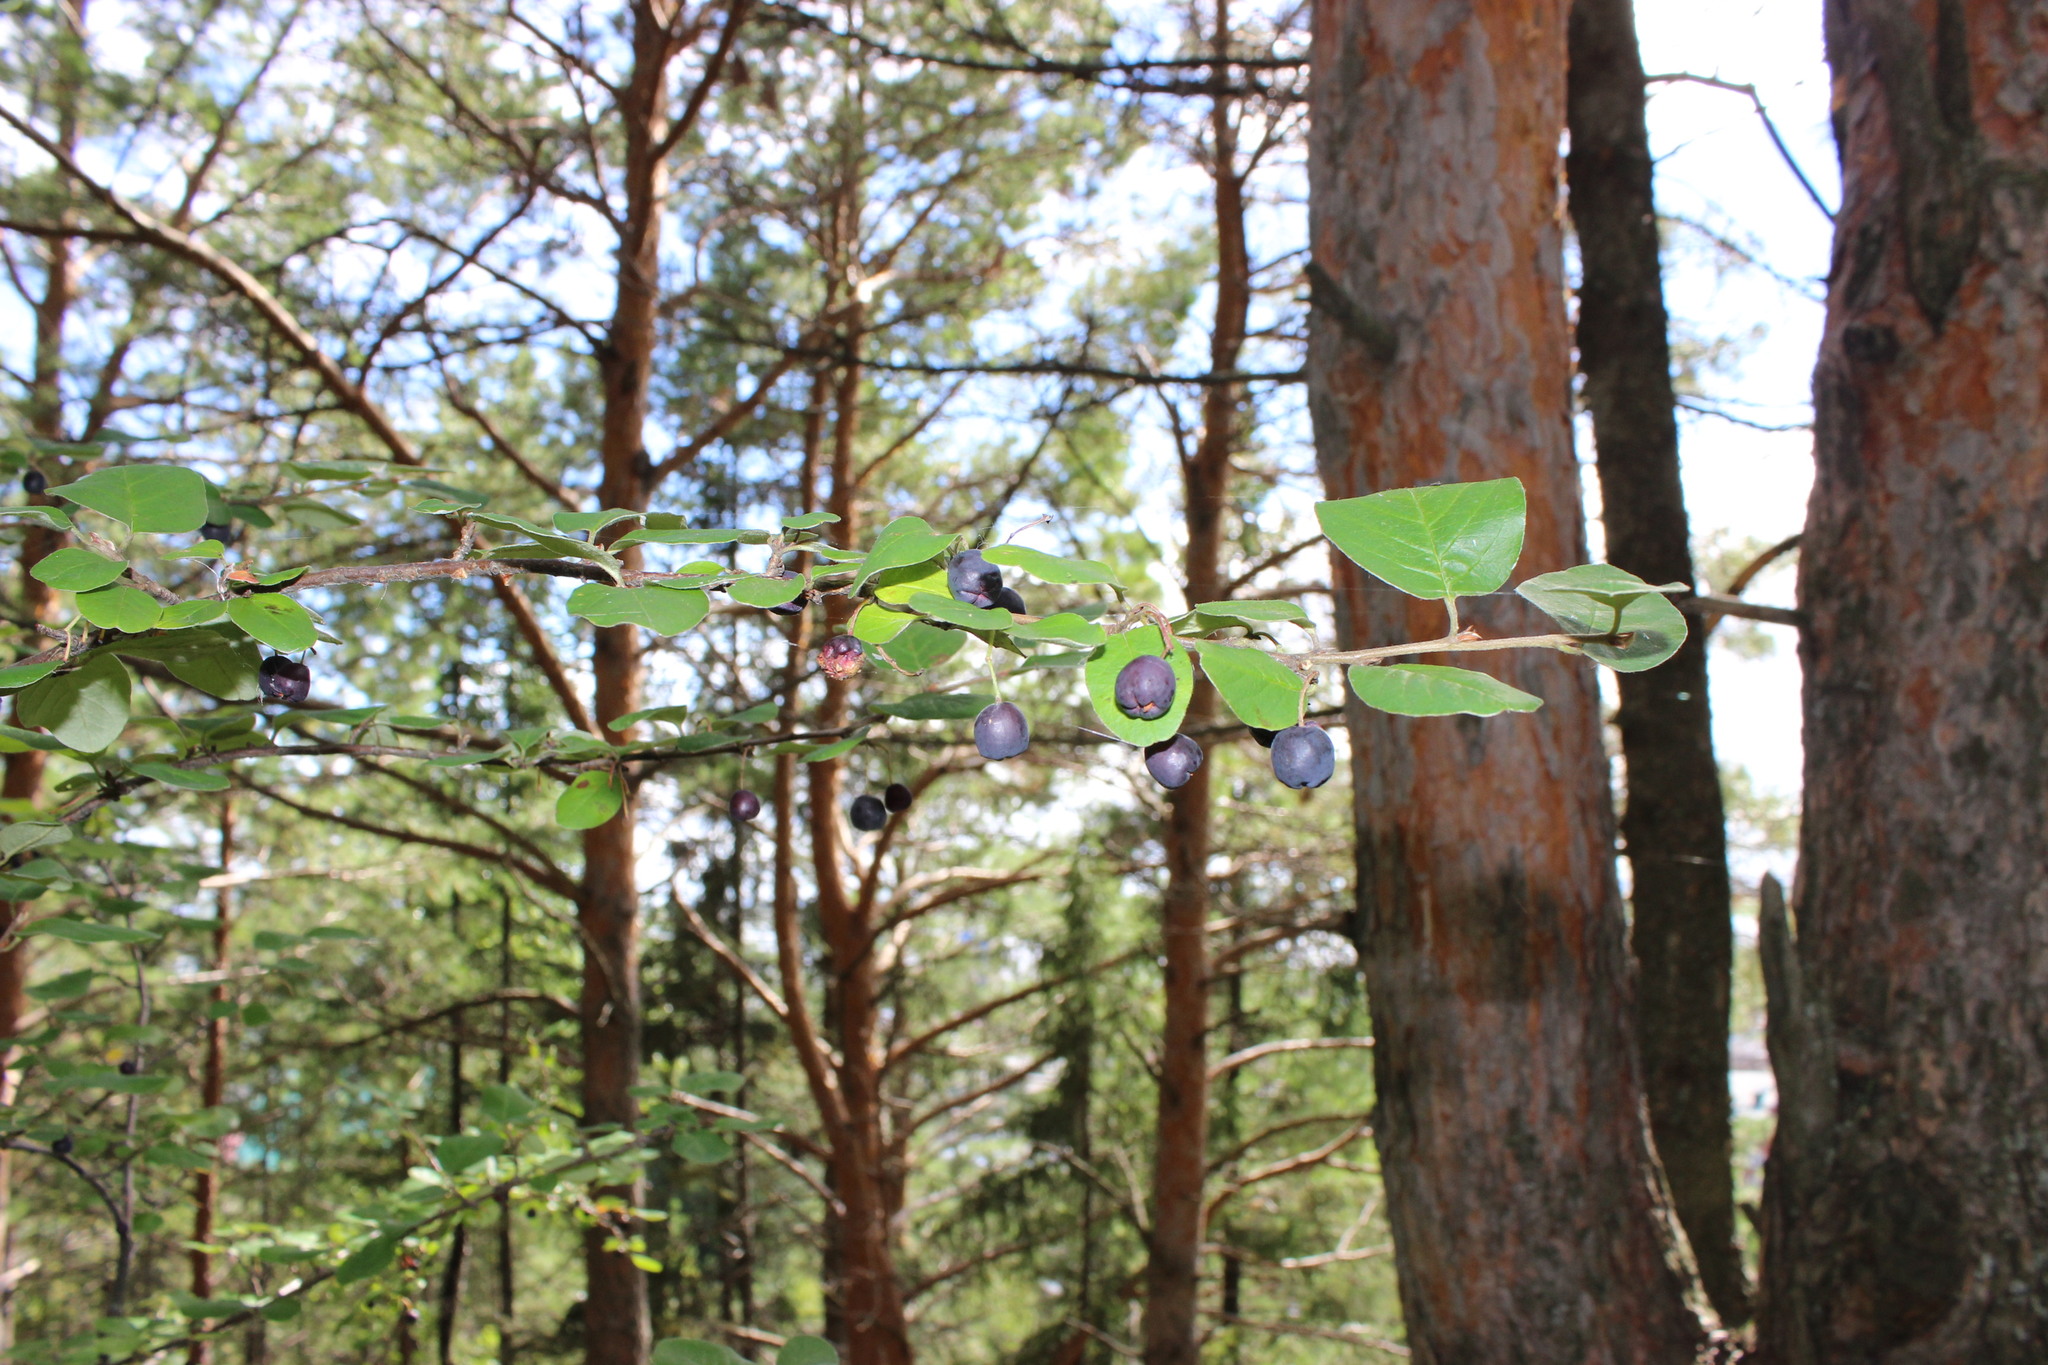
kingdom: Plantae
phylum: Tracheophyta
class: Magnoliopsida
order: Rosales
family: Rosaceae
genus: Cotoneaster
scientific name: Cotoneaster melanocarpus
